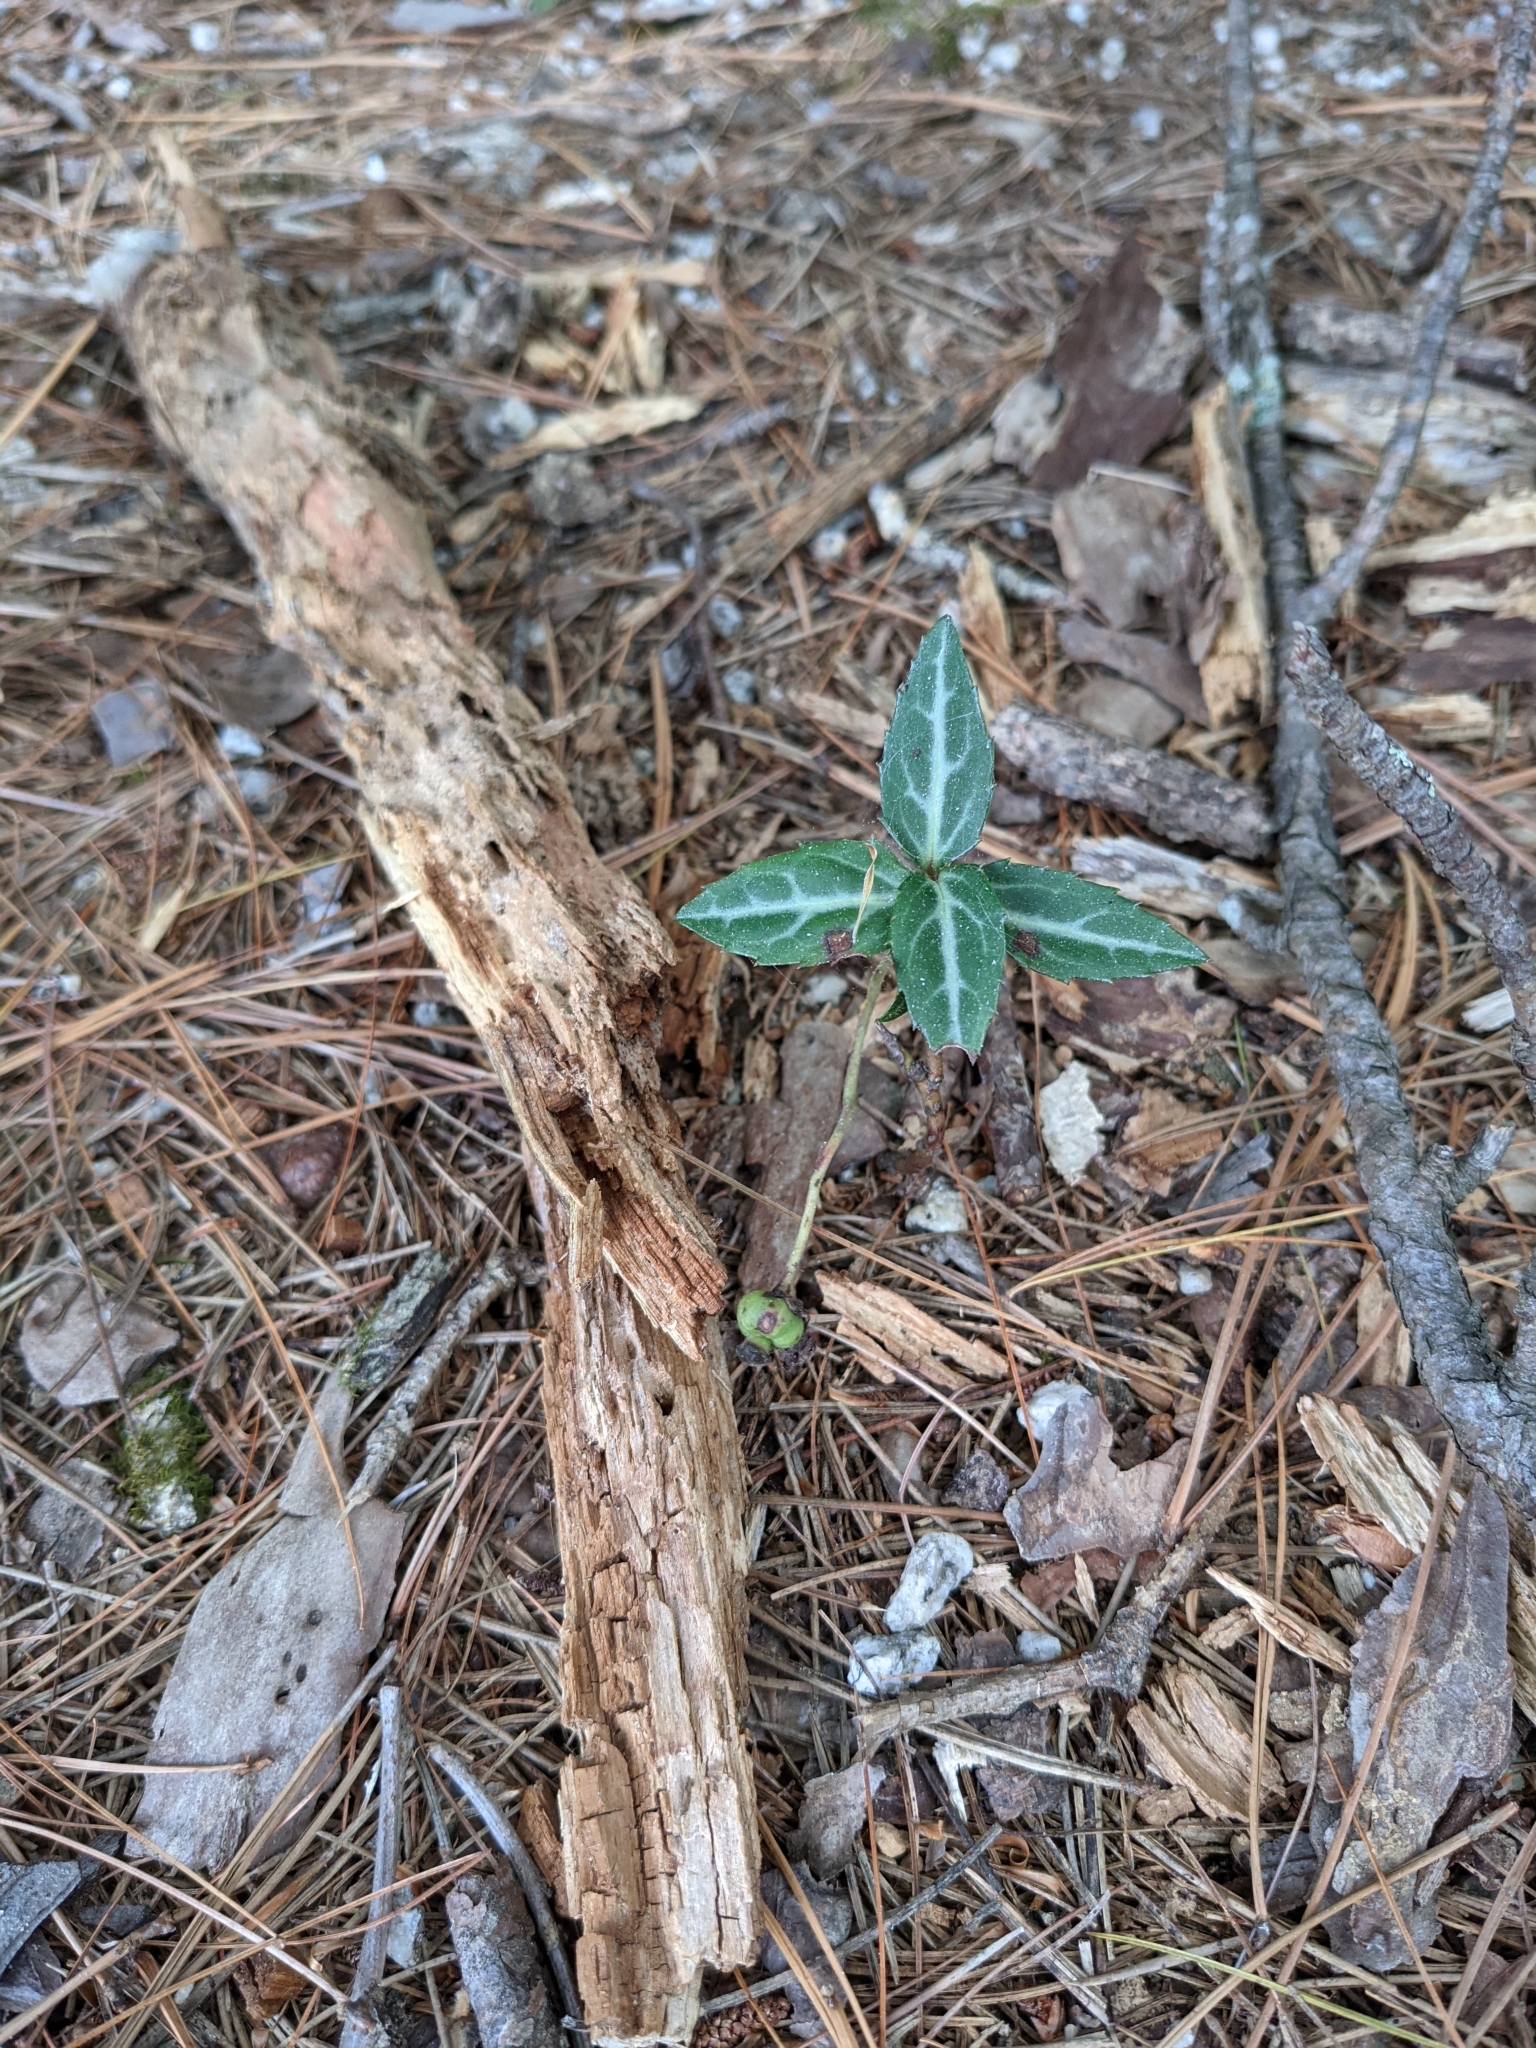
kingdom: Plantae
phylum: Tracheophyta
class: Magnoliopsida
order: Ericales
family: Ericaceae
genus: Chimaphila
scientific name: Chimaphila maculata
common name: Spotted pipsissewa
